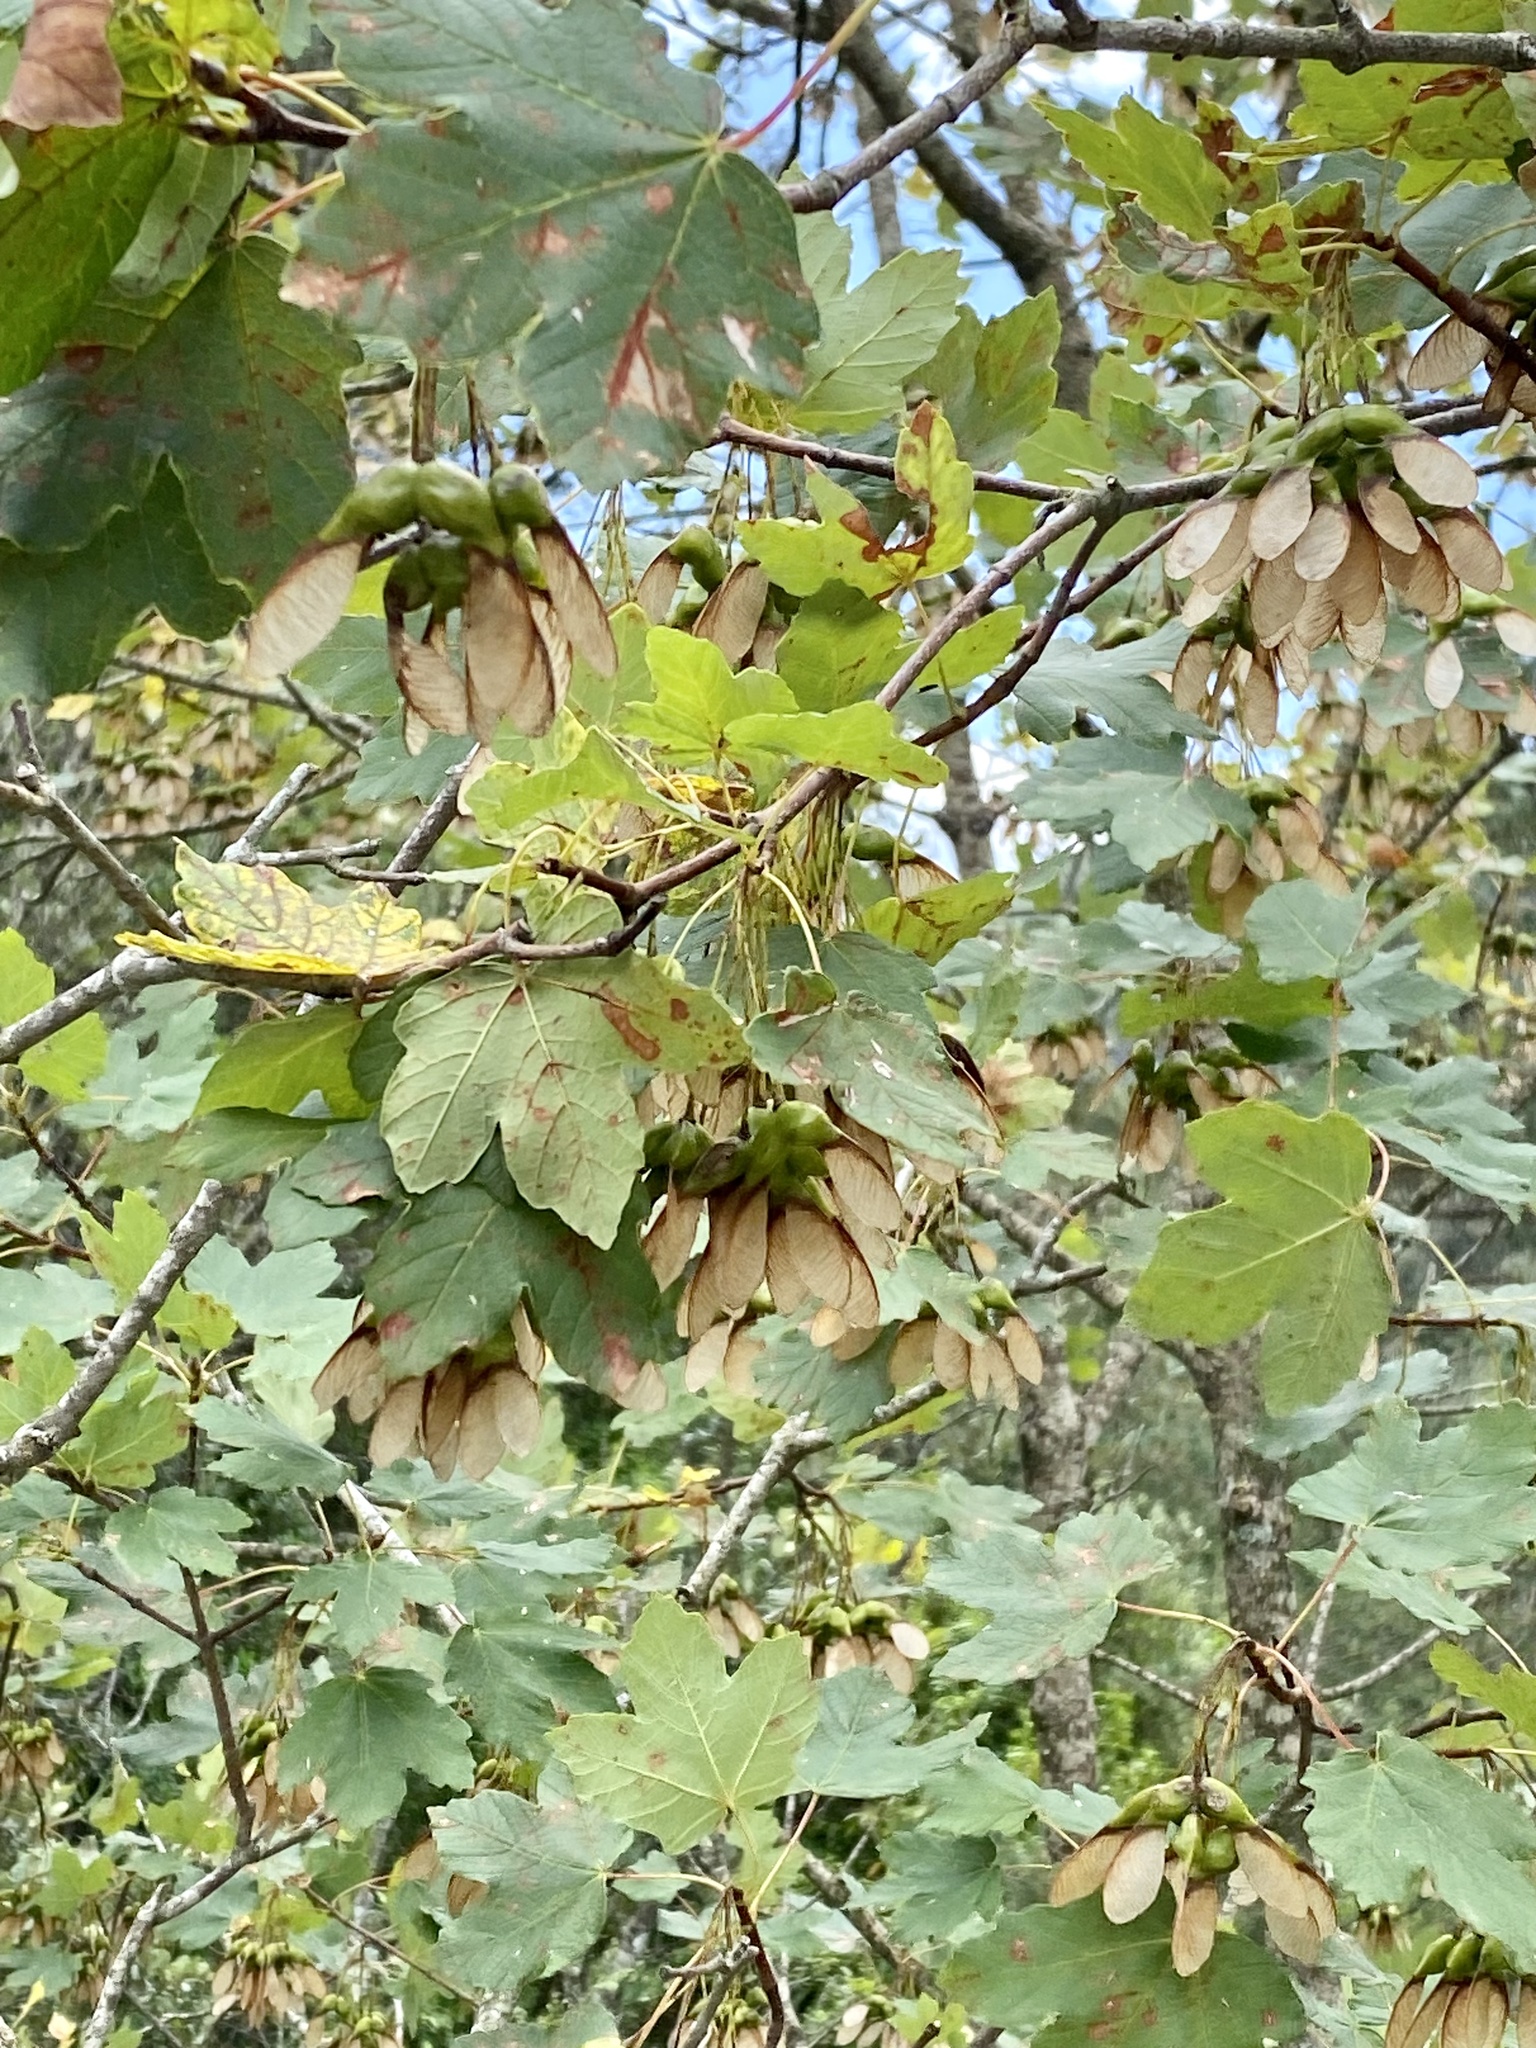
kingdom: Plantae
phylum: Tracheophyta
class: Magnoliopsida
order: Sapindales
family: Sapindaceae
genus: Acer
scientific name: Acer opalus
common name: Italian maple
